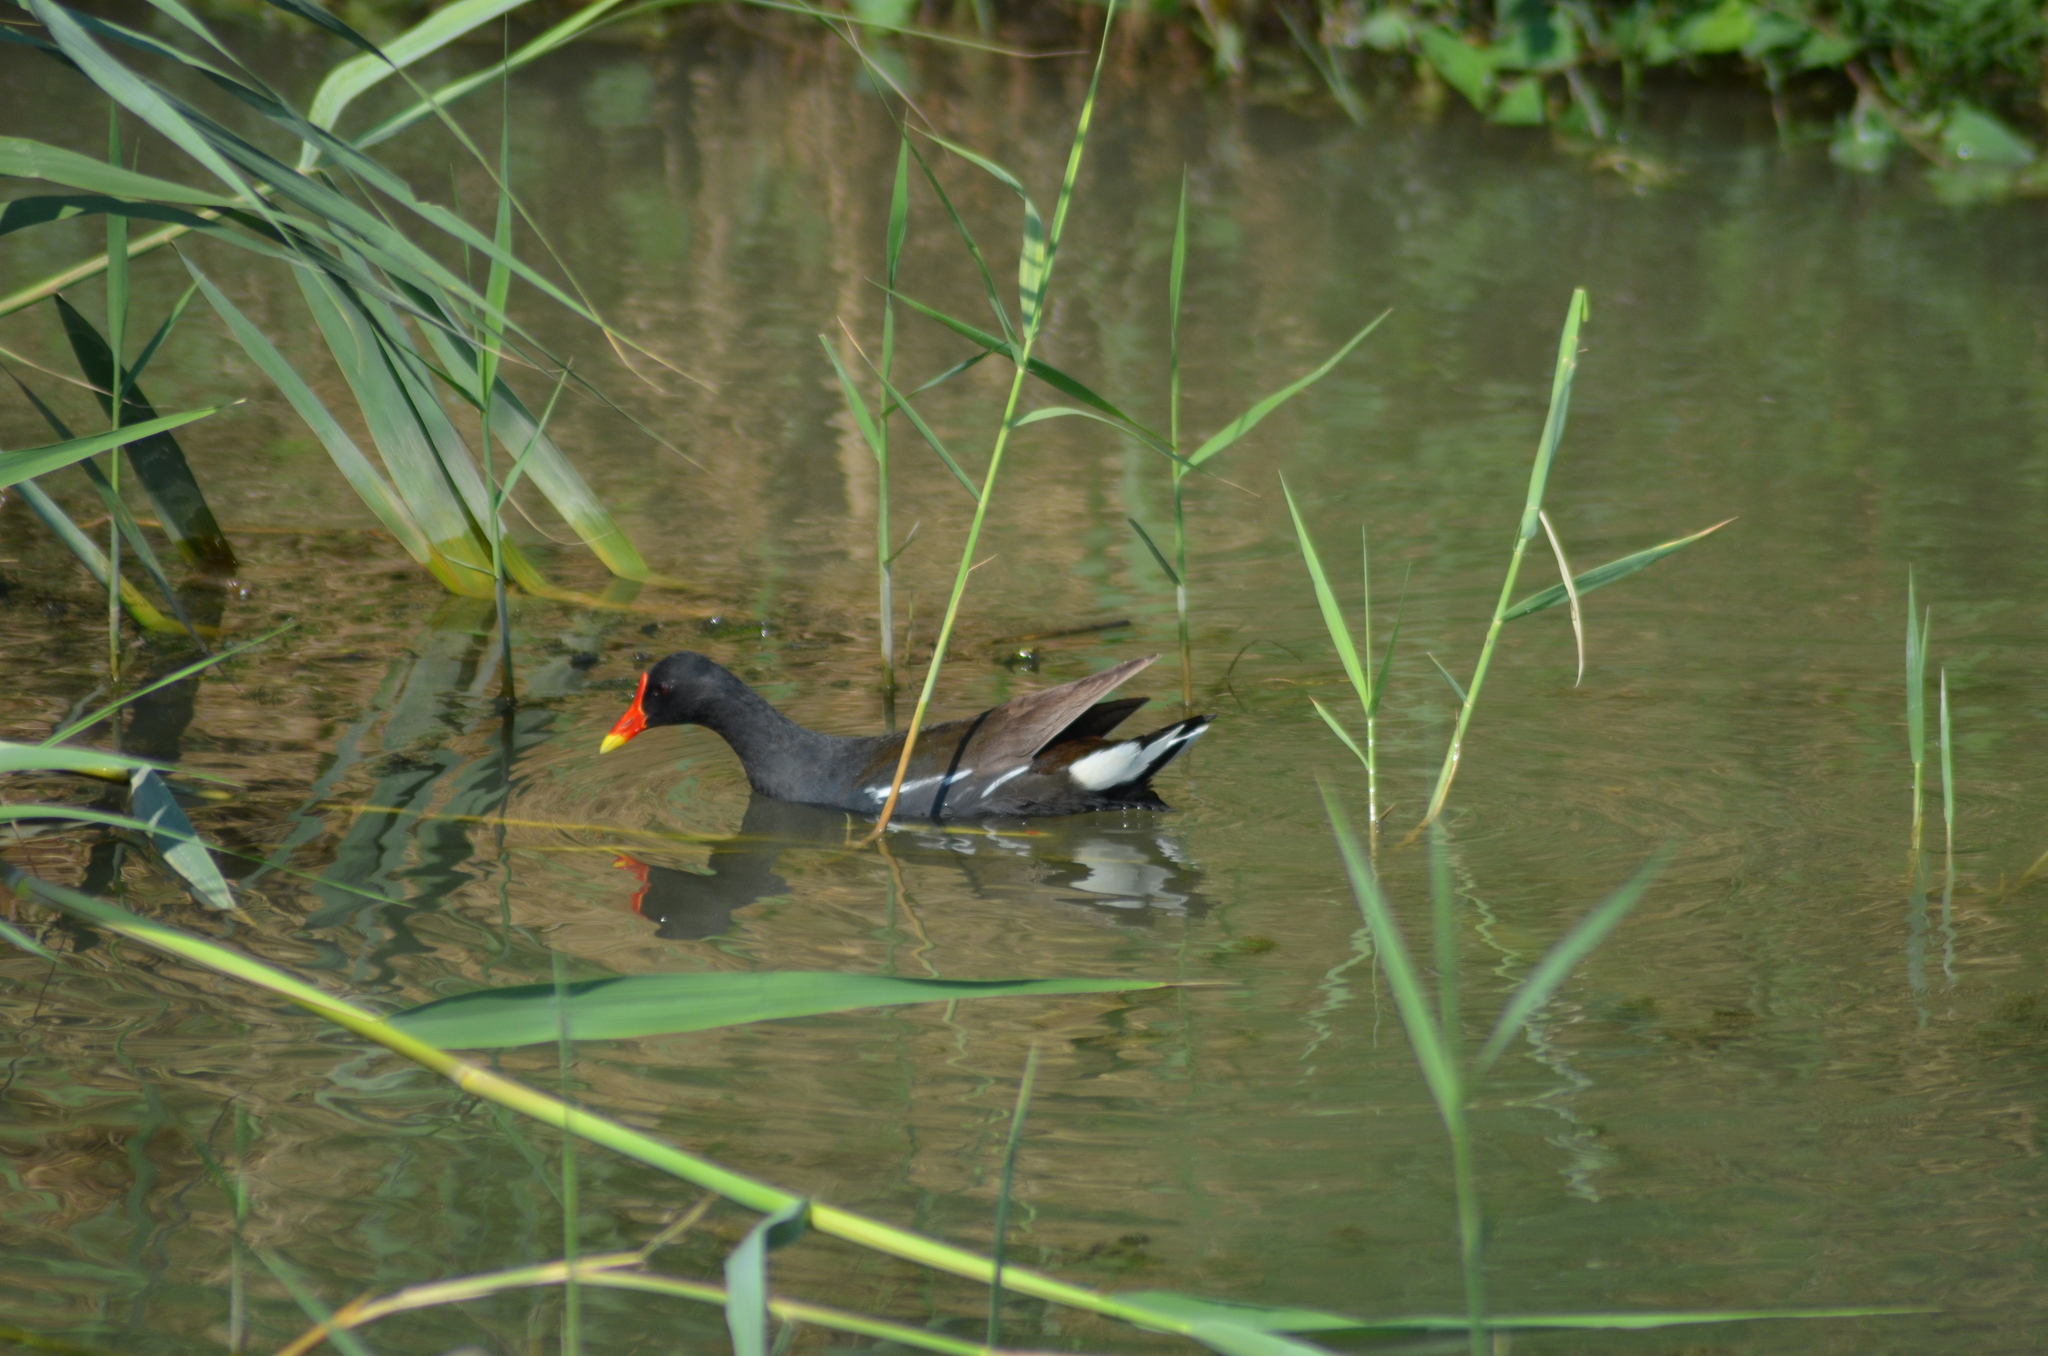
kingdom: Animalia
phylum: Chordata
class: Aves
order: Gruiformes
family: Rallidae
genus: Gallinula
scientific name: Gallinula chloropus
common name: Common moorhen
